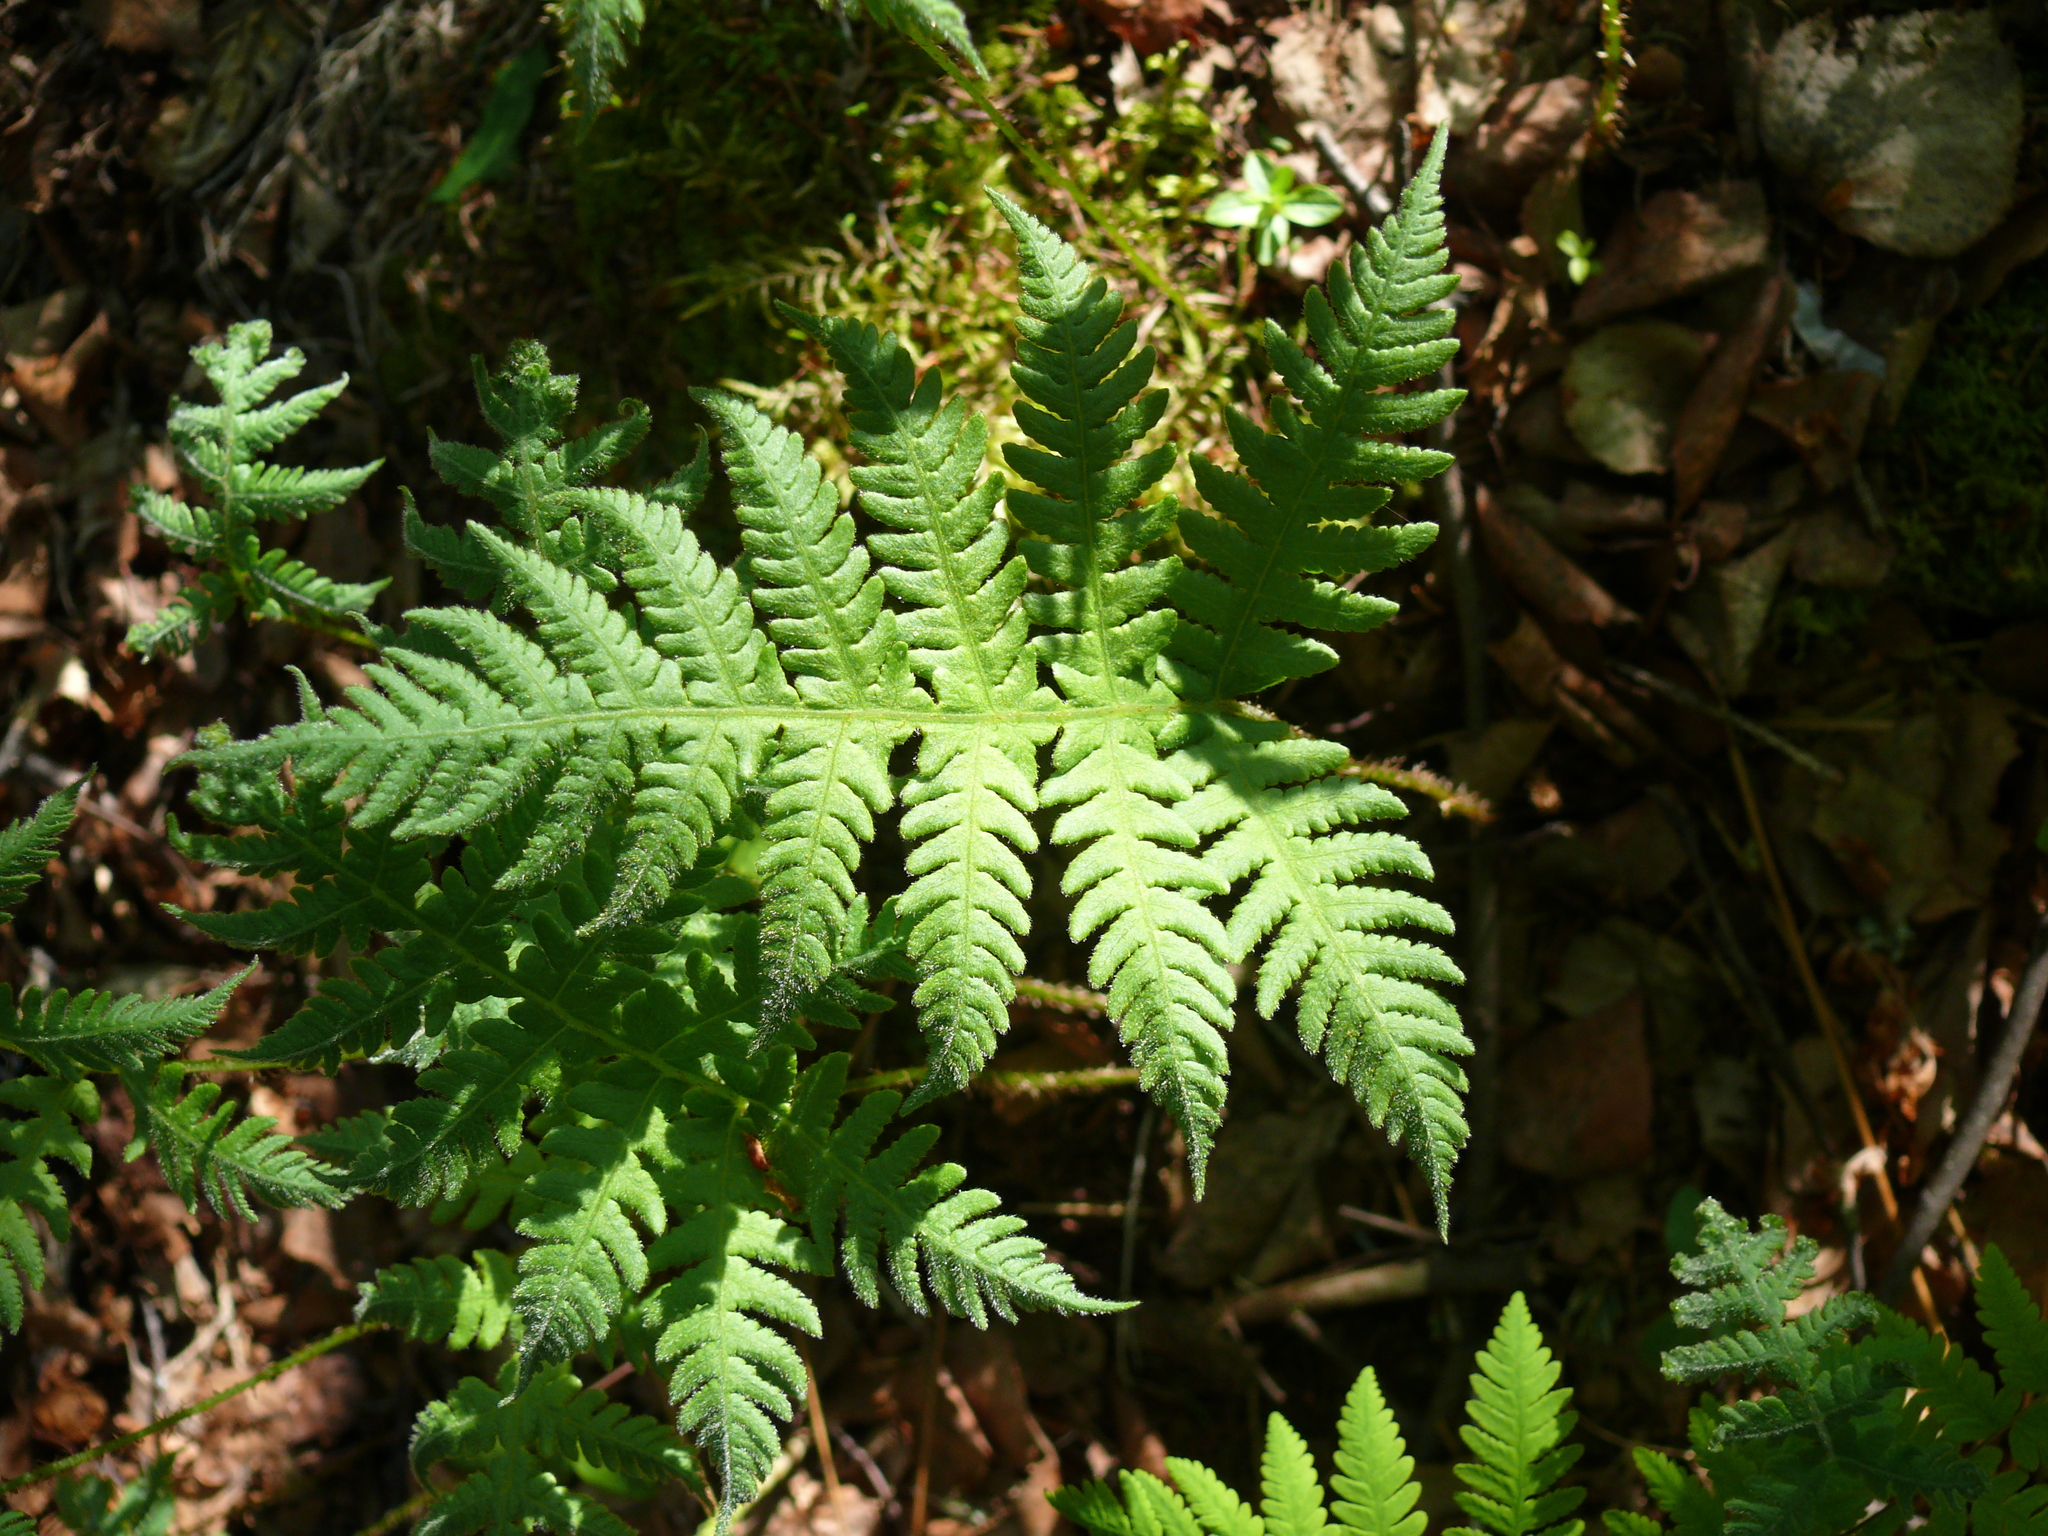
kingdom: Plantae
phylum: Tracheophyta
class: Polypodiopsida
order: Polypodiales
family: Thelypteridaceae
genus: Phegopteris
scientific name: Phegopteris connectilis
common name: Beech fern
